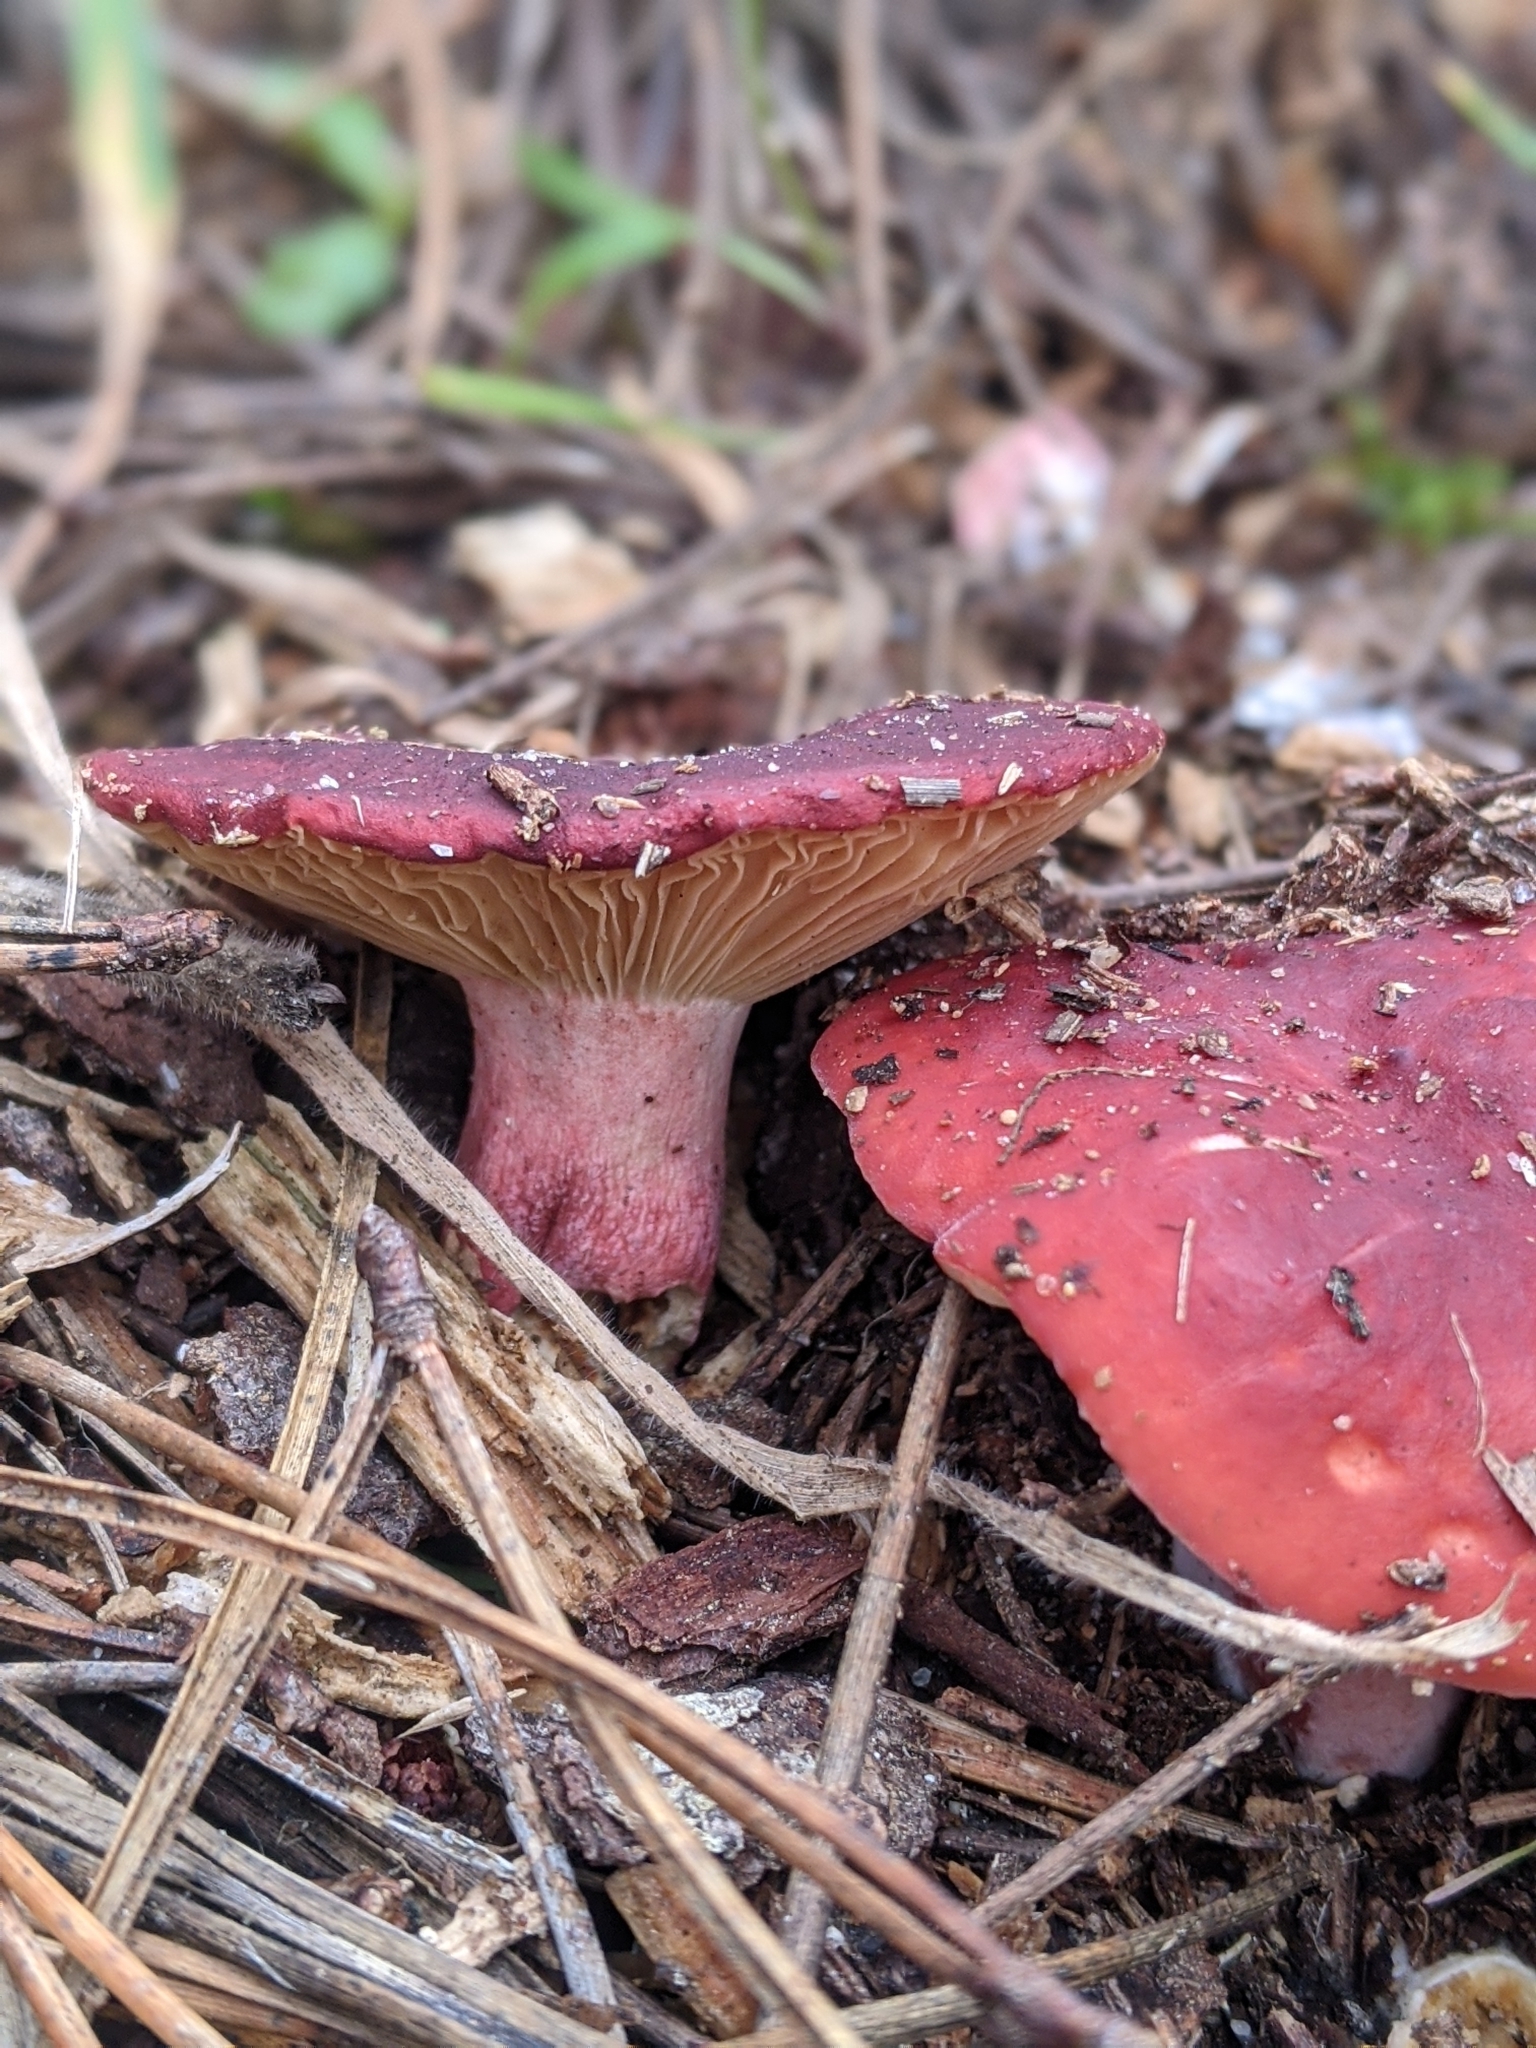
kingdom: Fungi
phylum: Basidiomycota
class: Agaricomycetes
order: Russulales
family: Russulaceae
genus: Russula
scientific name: Russula rhodocephala
